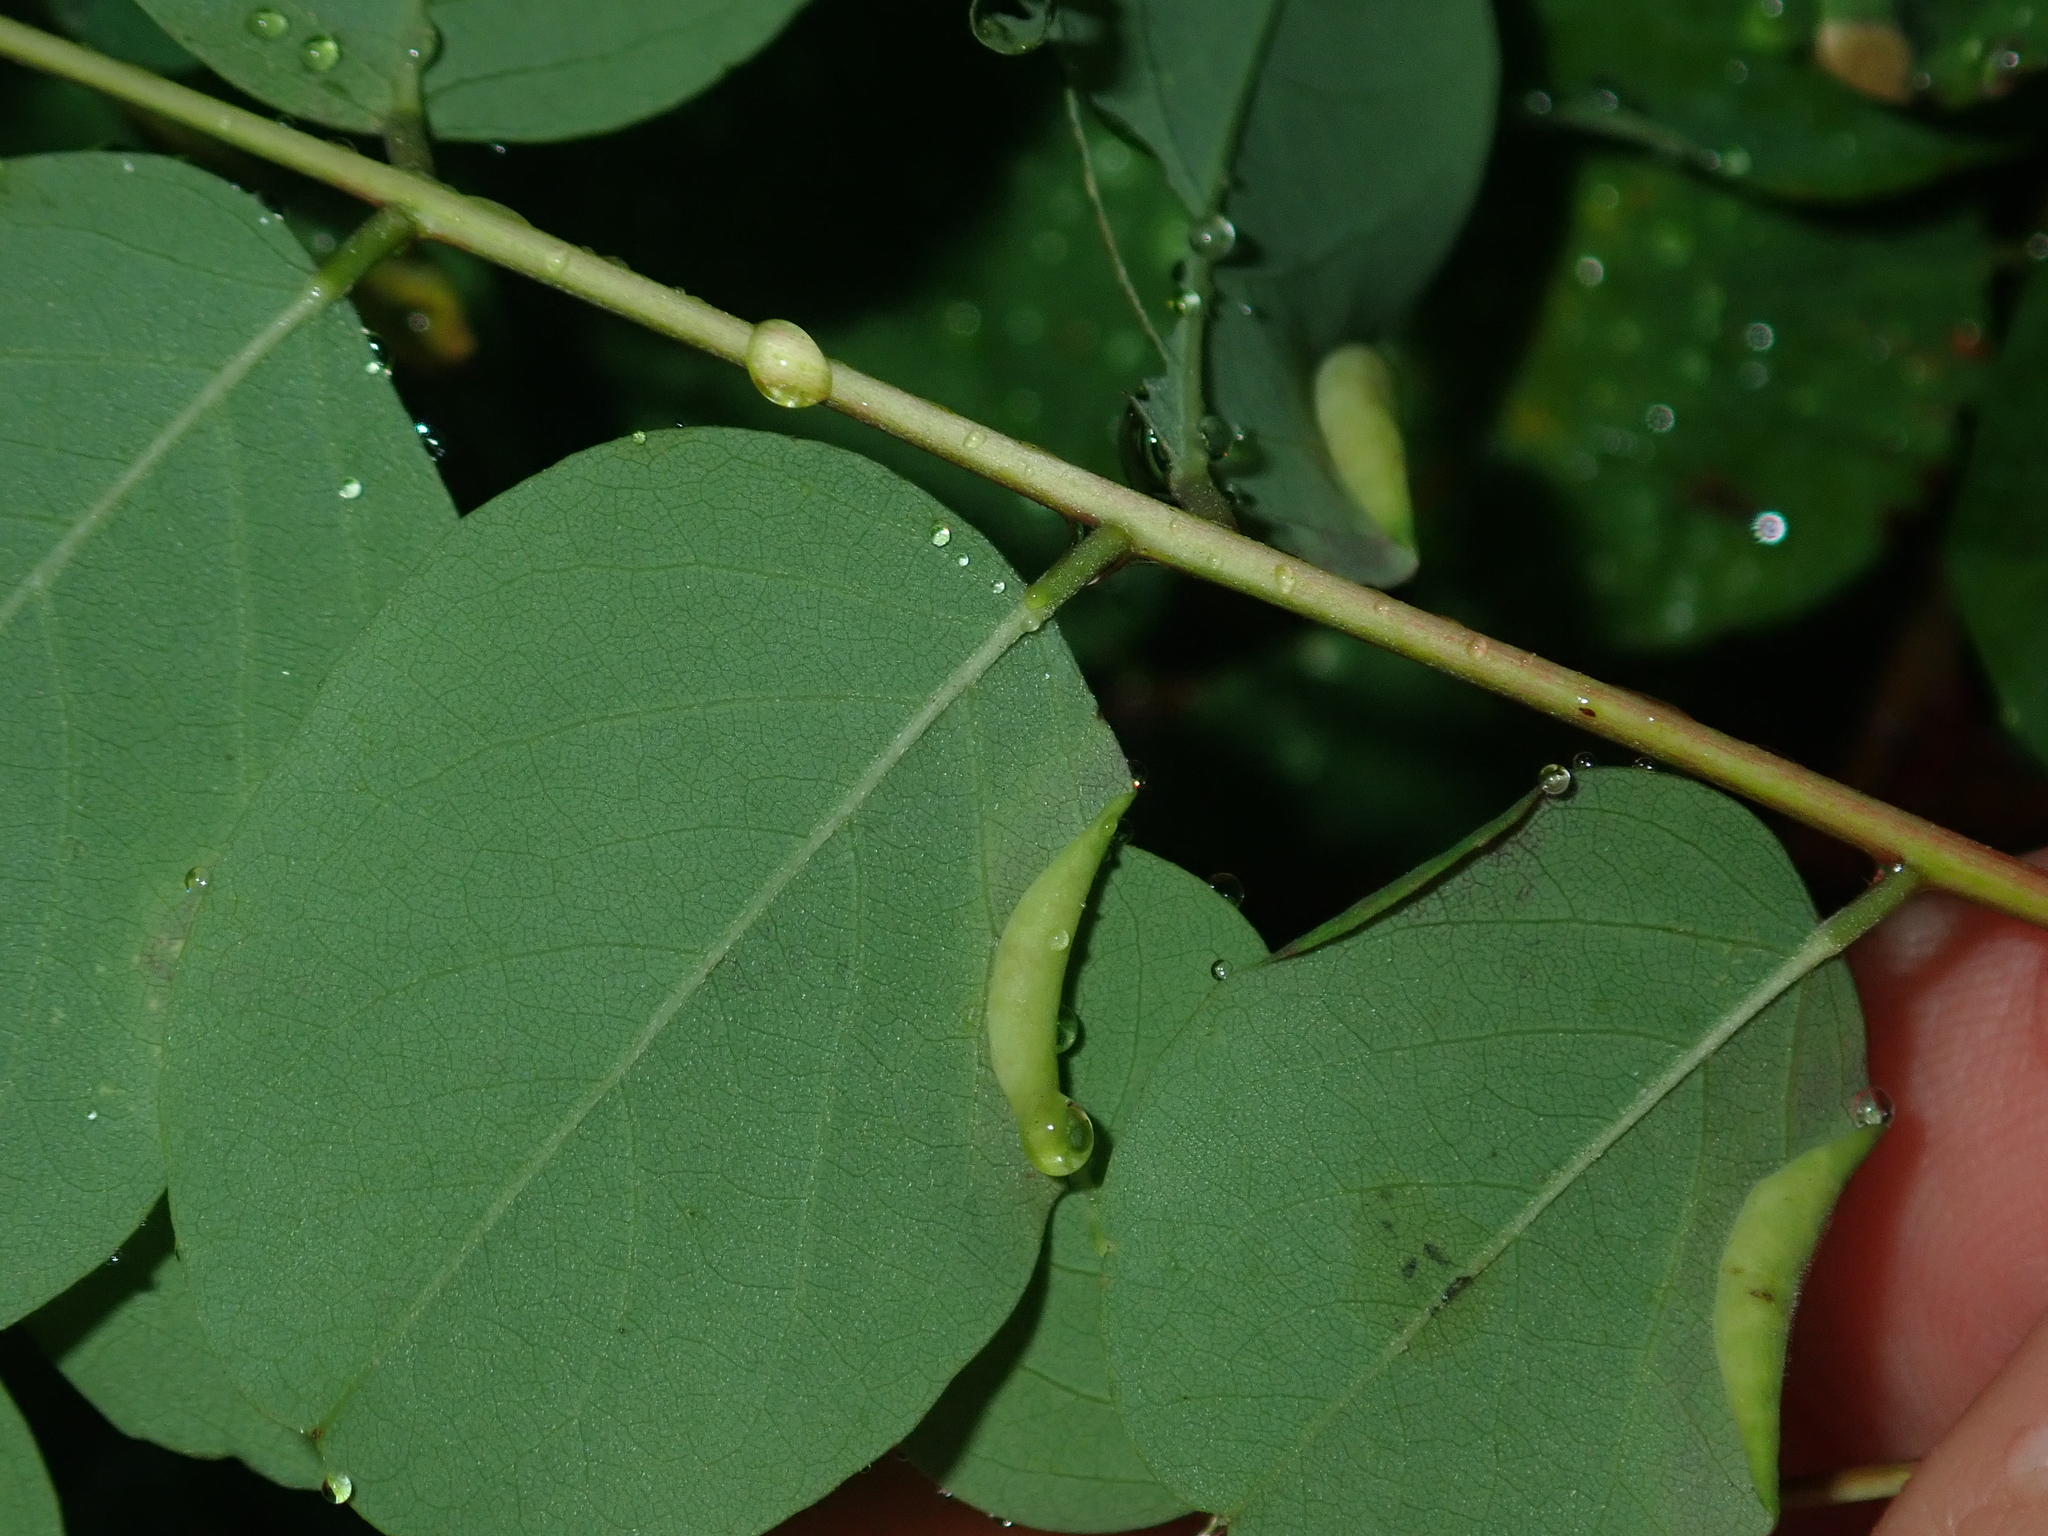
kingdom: Animalia
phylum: Arthropoda
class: Insecta
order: Diptera
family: Cecidomyiidae
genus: Obolodiplosis
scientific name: Obolodiplosis robiniae
